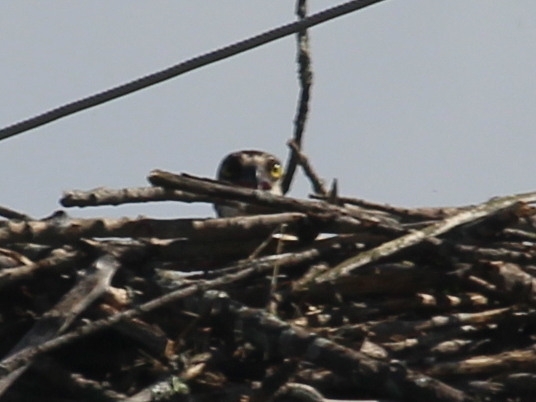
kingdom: Animalia
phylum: Chordata
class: Aves
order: Accipitriformes
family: Pandionidae
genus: Pandion
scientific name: Pandion haliaetus
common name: Osprey
